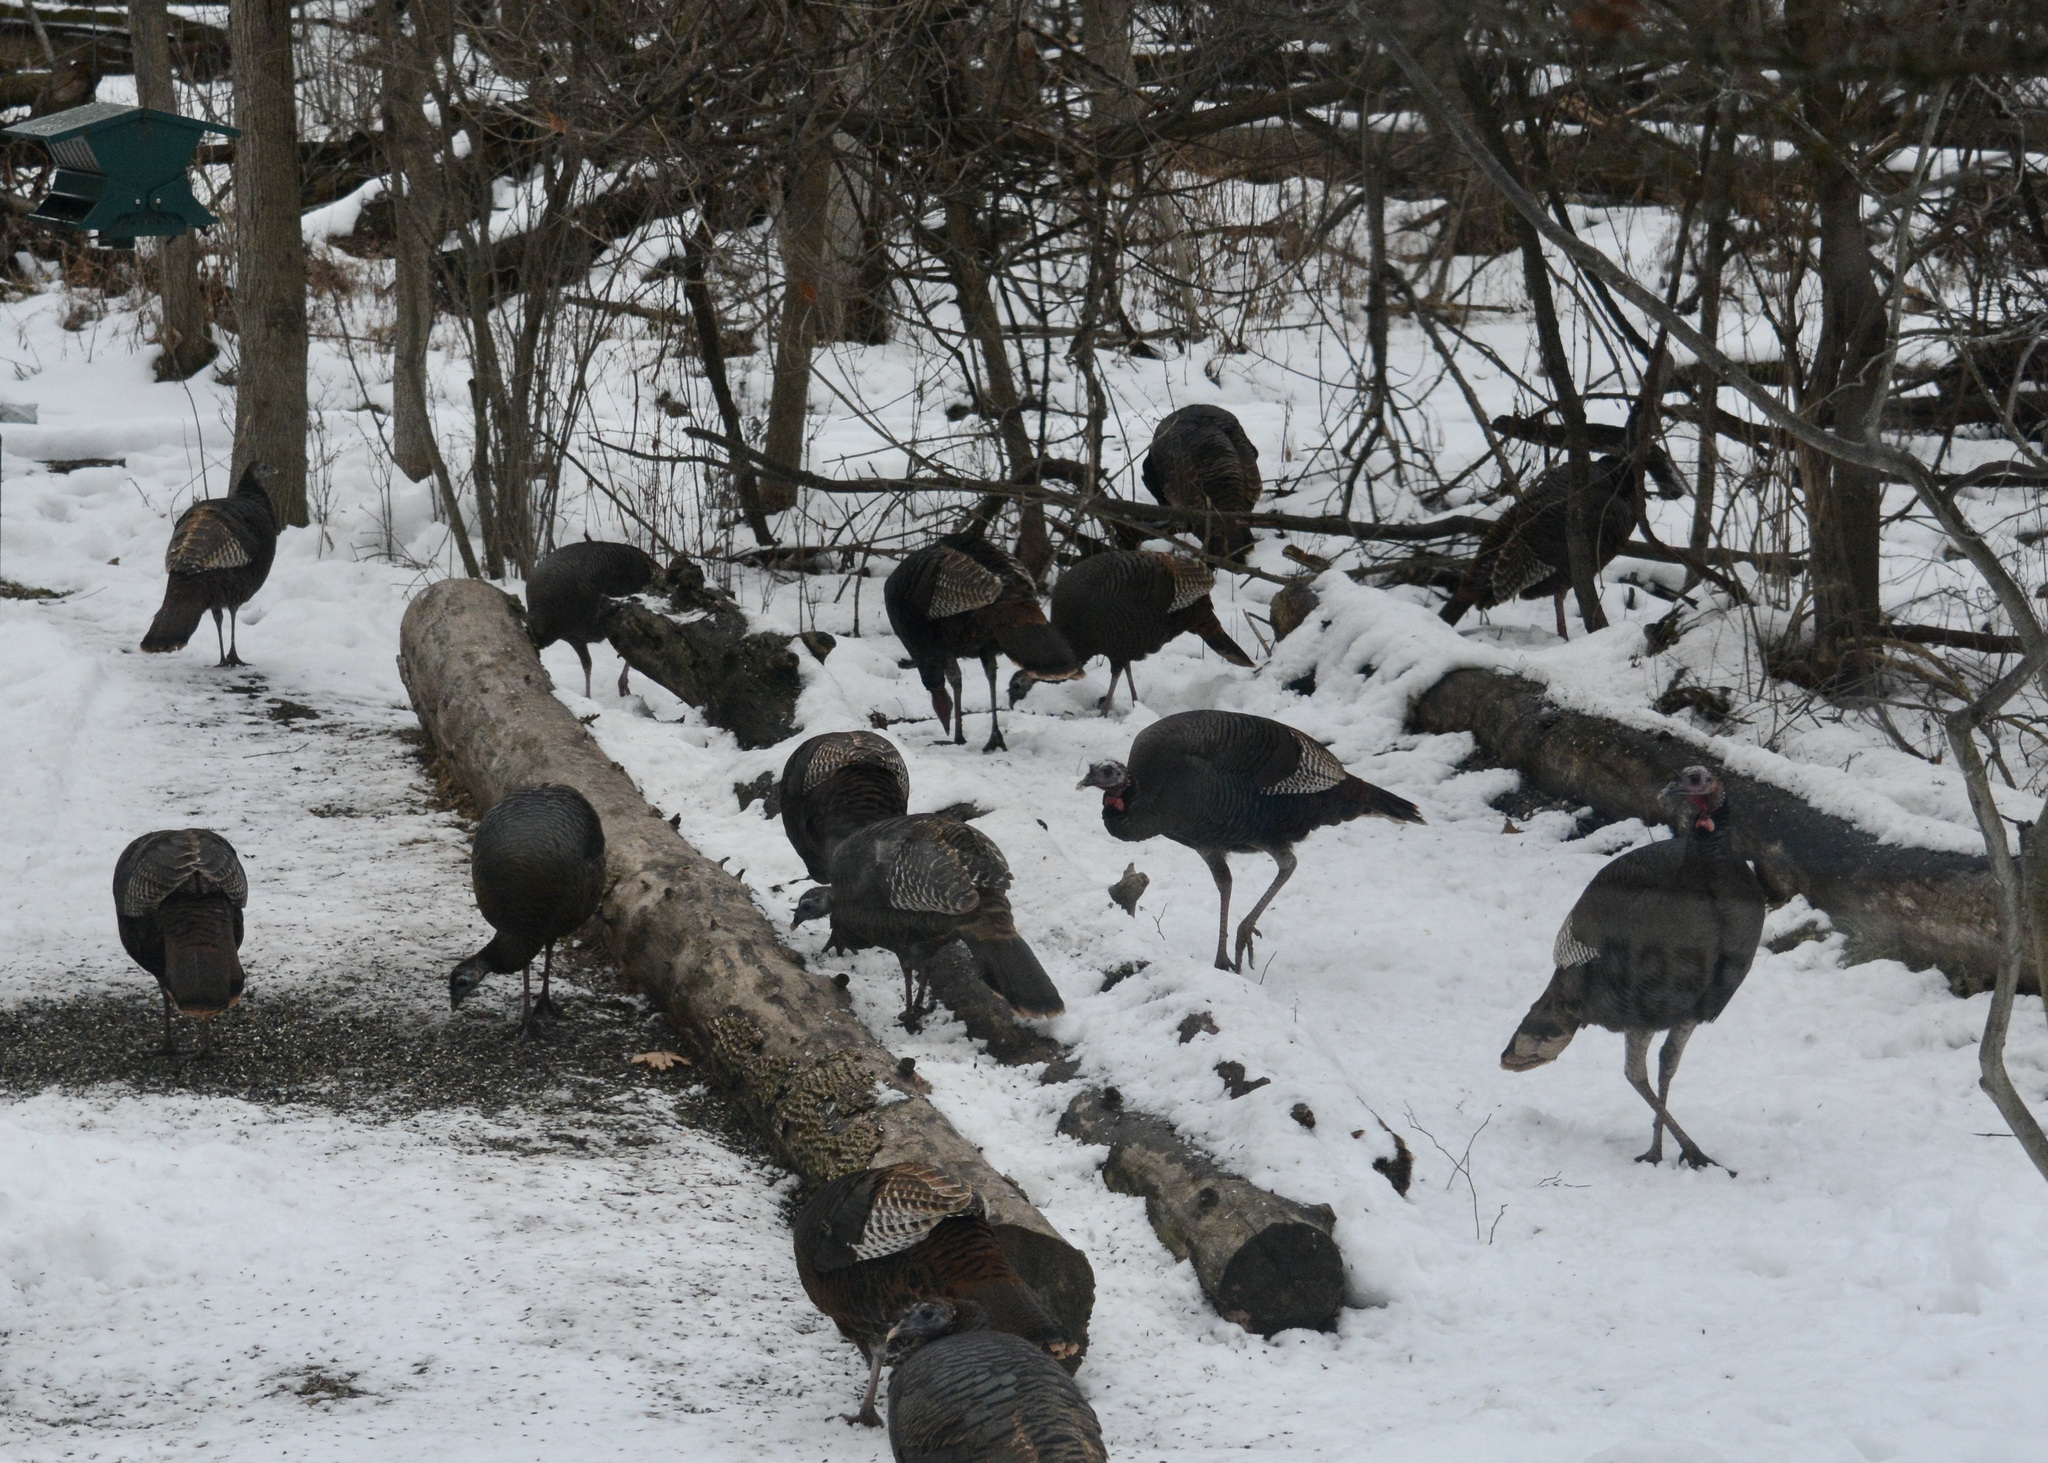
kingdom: Animalia
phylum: Chordata
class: Aves
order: Galliformes
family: Phasianidae
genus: Meleagris
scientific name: Meleagris gallopavo
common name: Wild turkey
